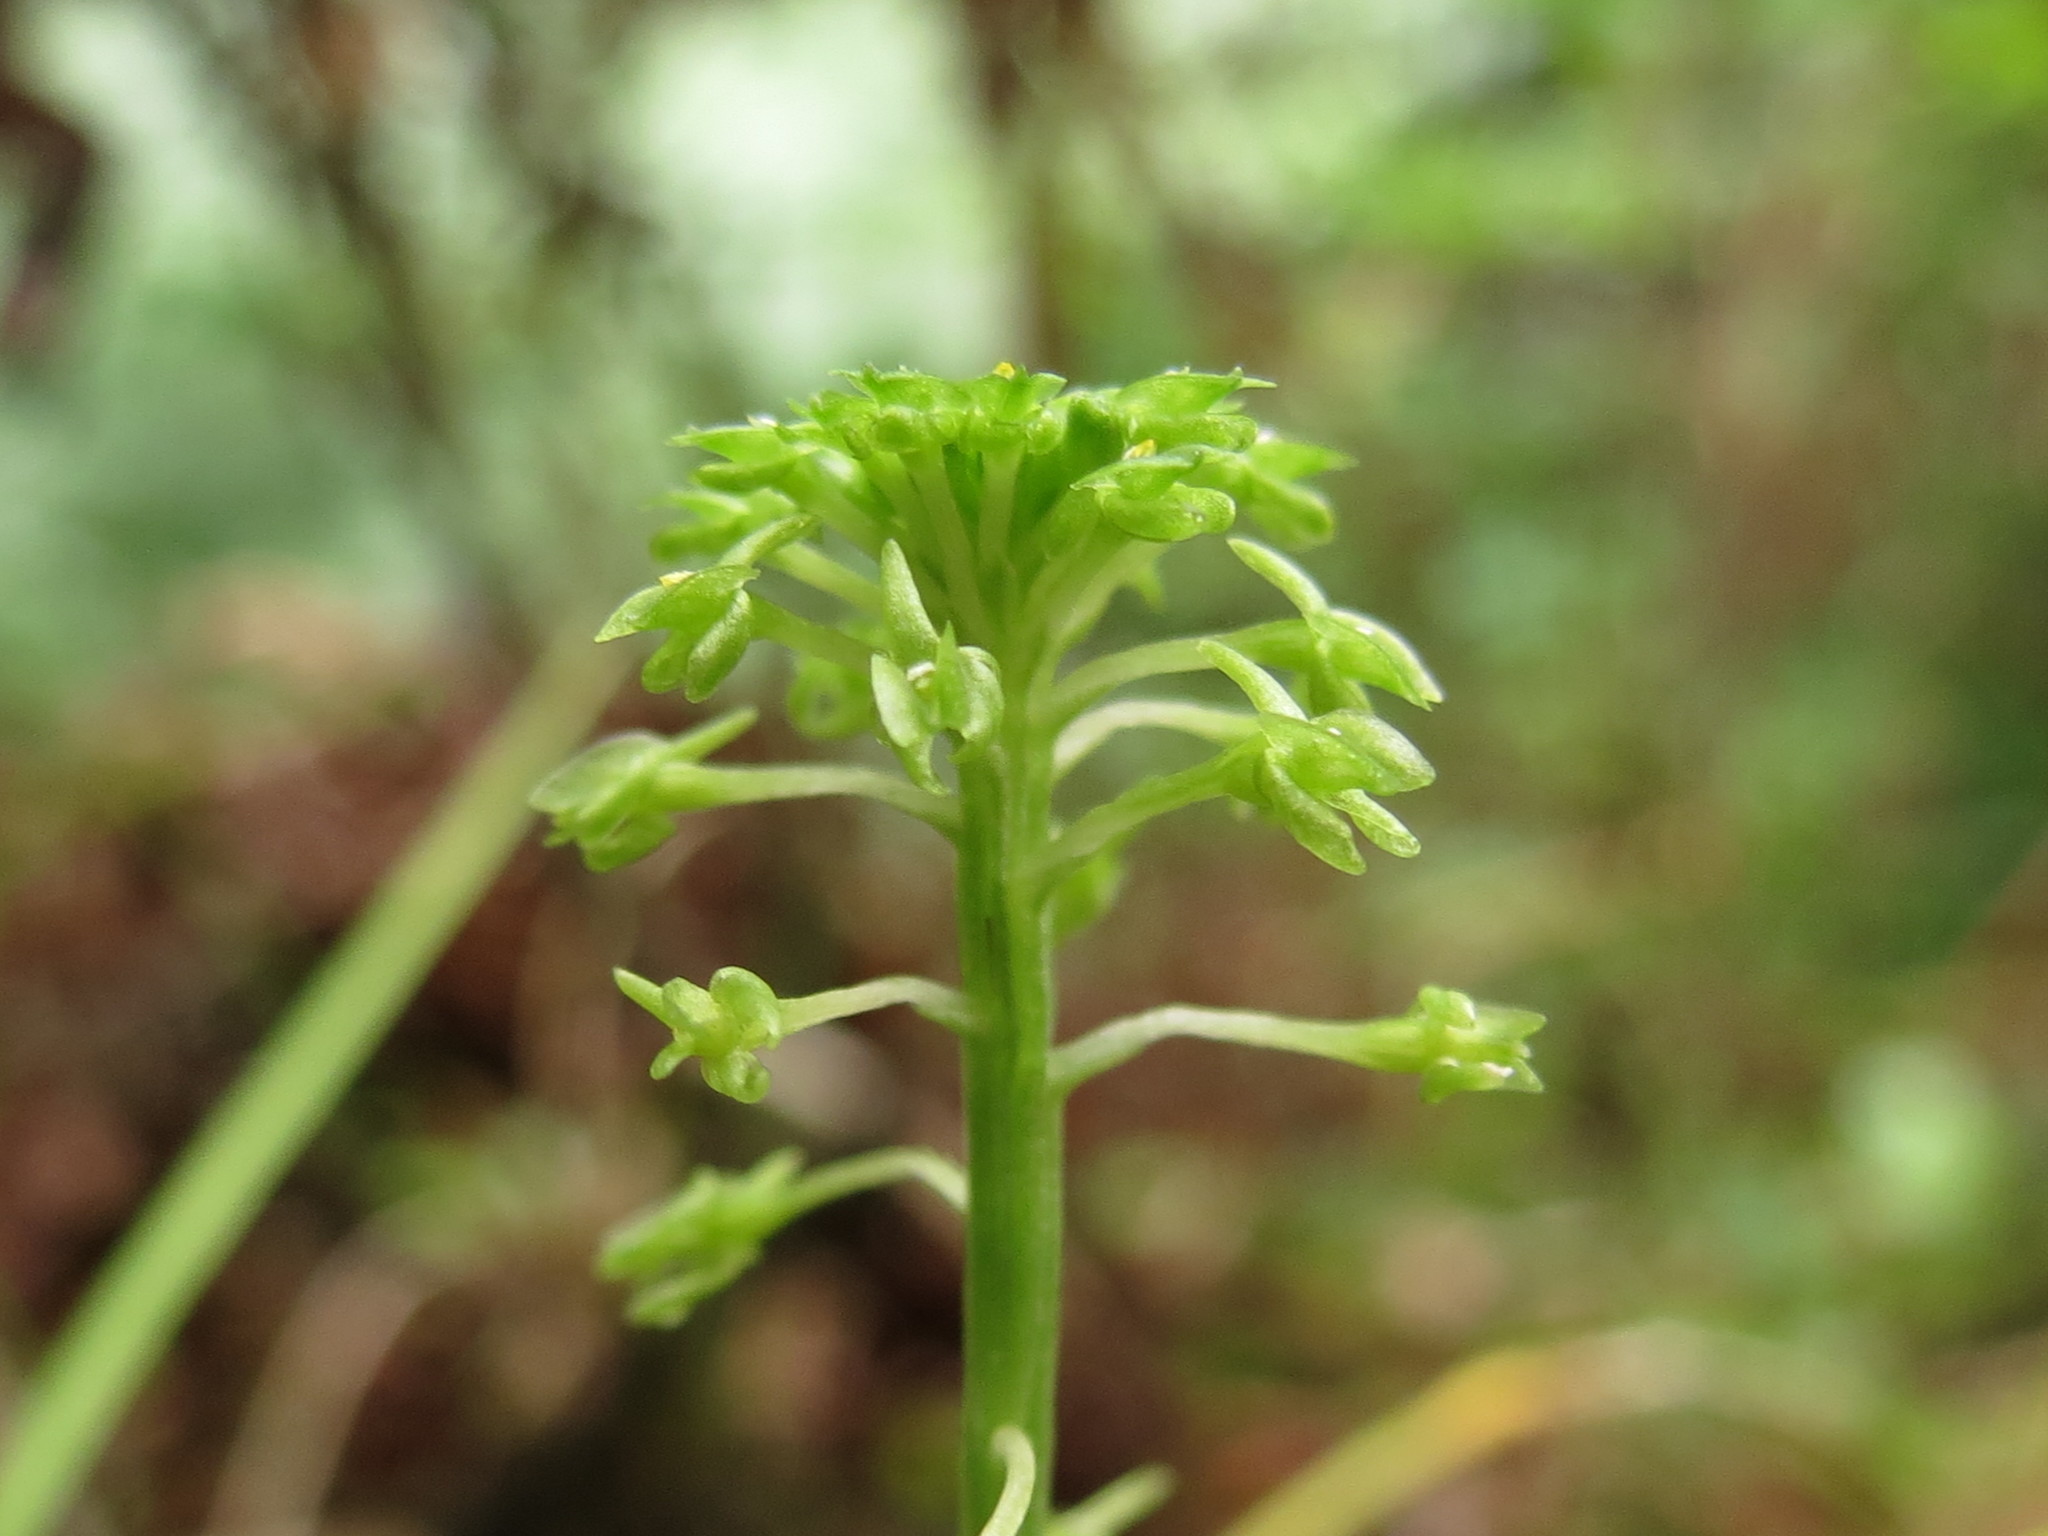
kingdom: Plantae
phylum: Tracheophyta
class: Liliopsida
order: Asparagales
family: Orchidaceae
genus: Malaxis
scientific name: Malaxis unifolia
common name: Green adder's-mouth
